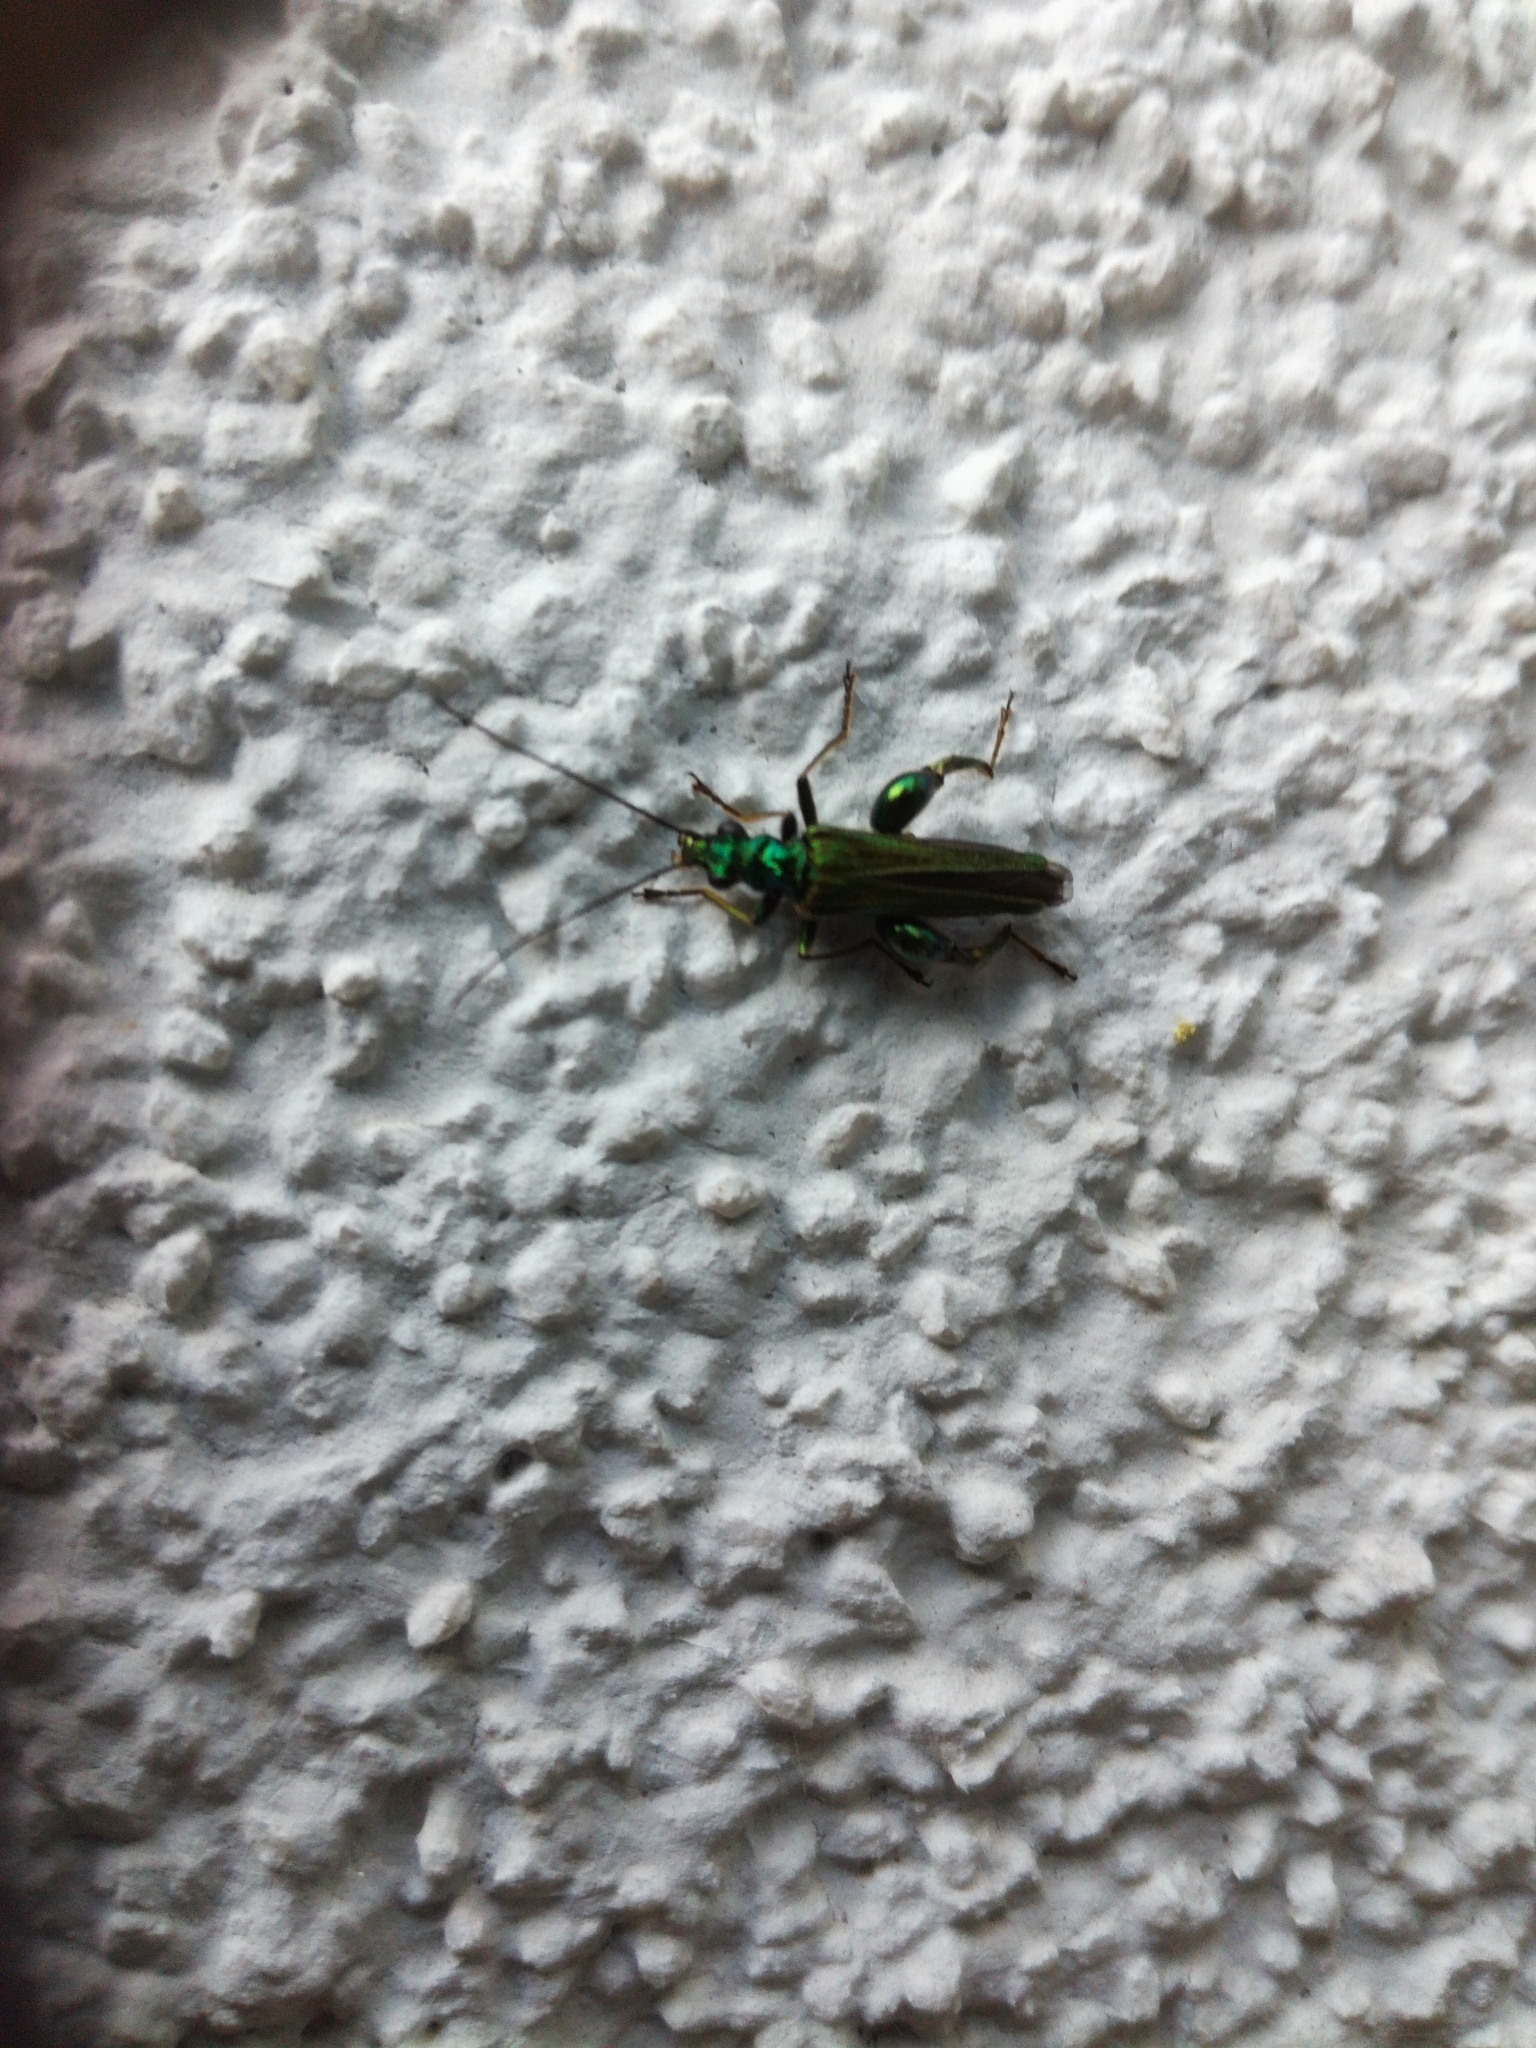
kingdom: Animalia
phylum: Arthropoda
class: Insecta
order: Coleoptera
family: Oedemeridae
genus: Oedemera
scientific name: Oedemera nobilis
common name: Swollen-thighed beetle
